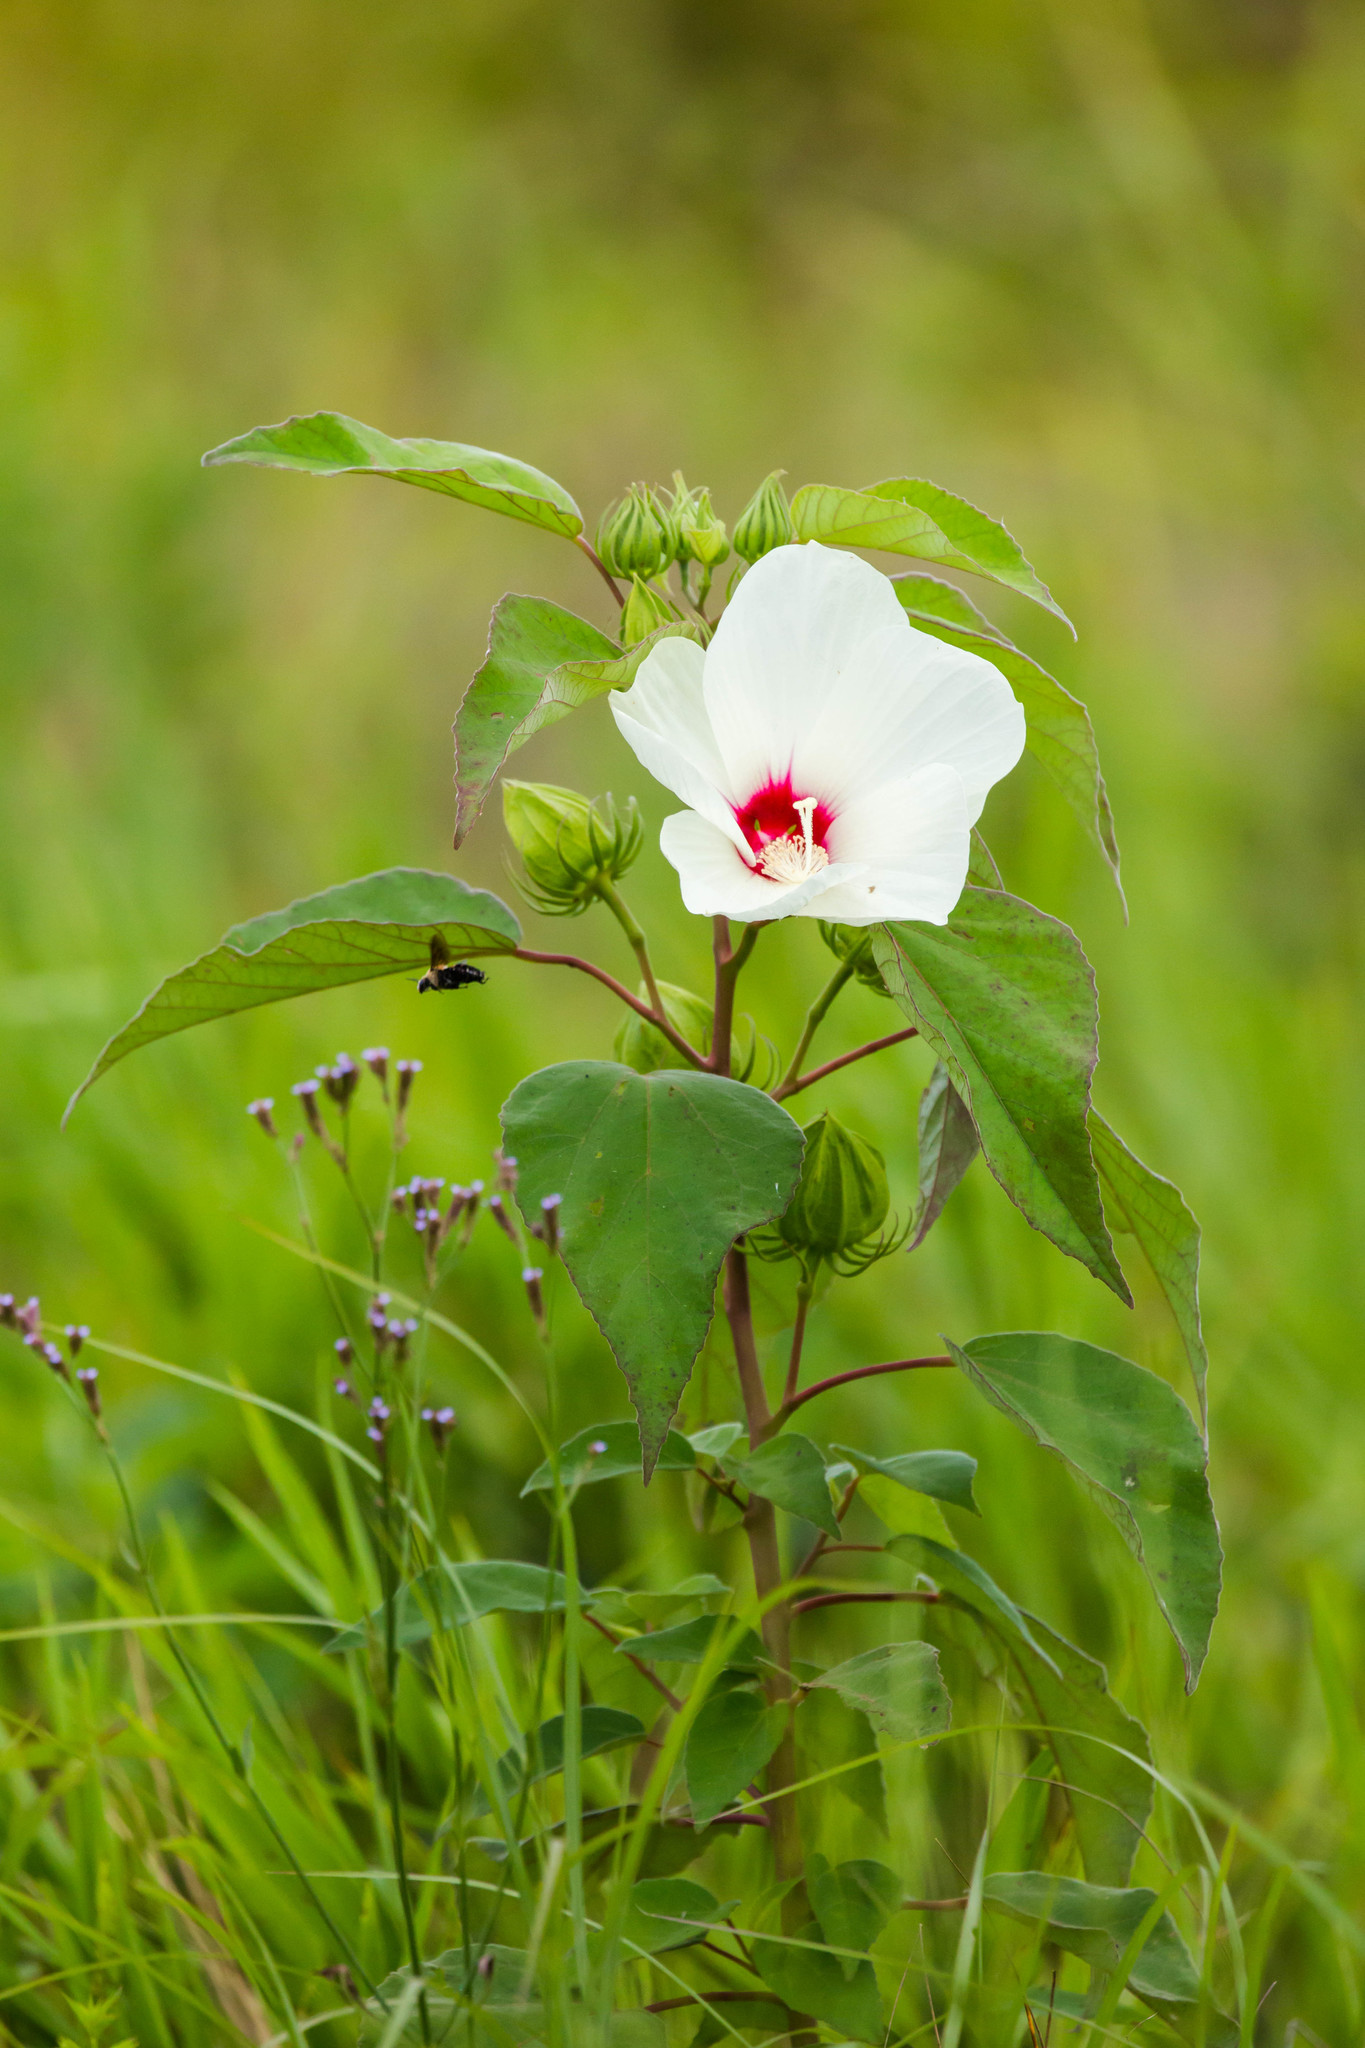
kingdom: Plantae
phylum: Tracheophyta
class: Magnoliopsida
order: Malvales
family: Malvaceae
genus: Hibiscus
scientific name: Hibiscus moscheutos
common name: Common rose-mallow
